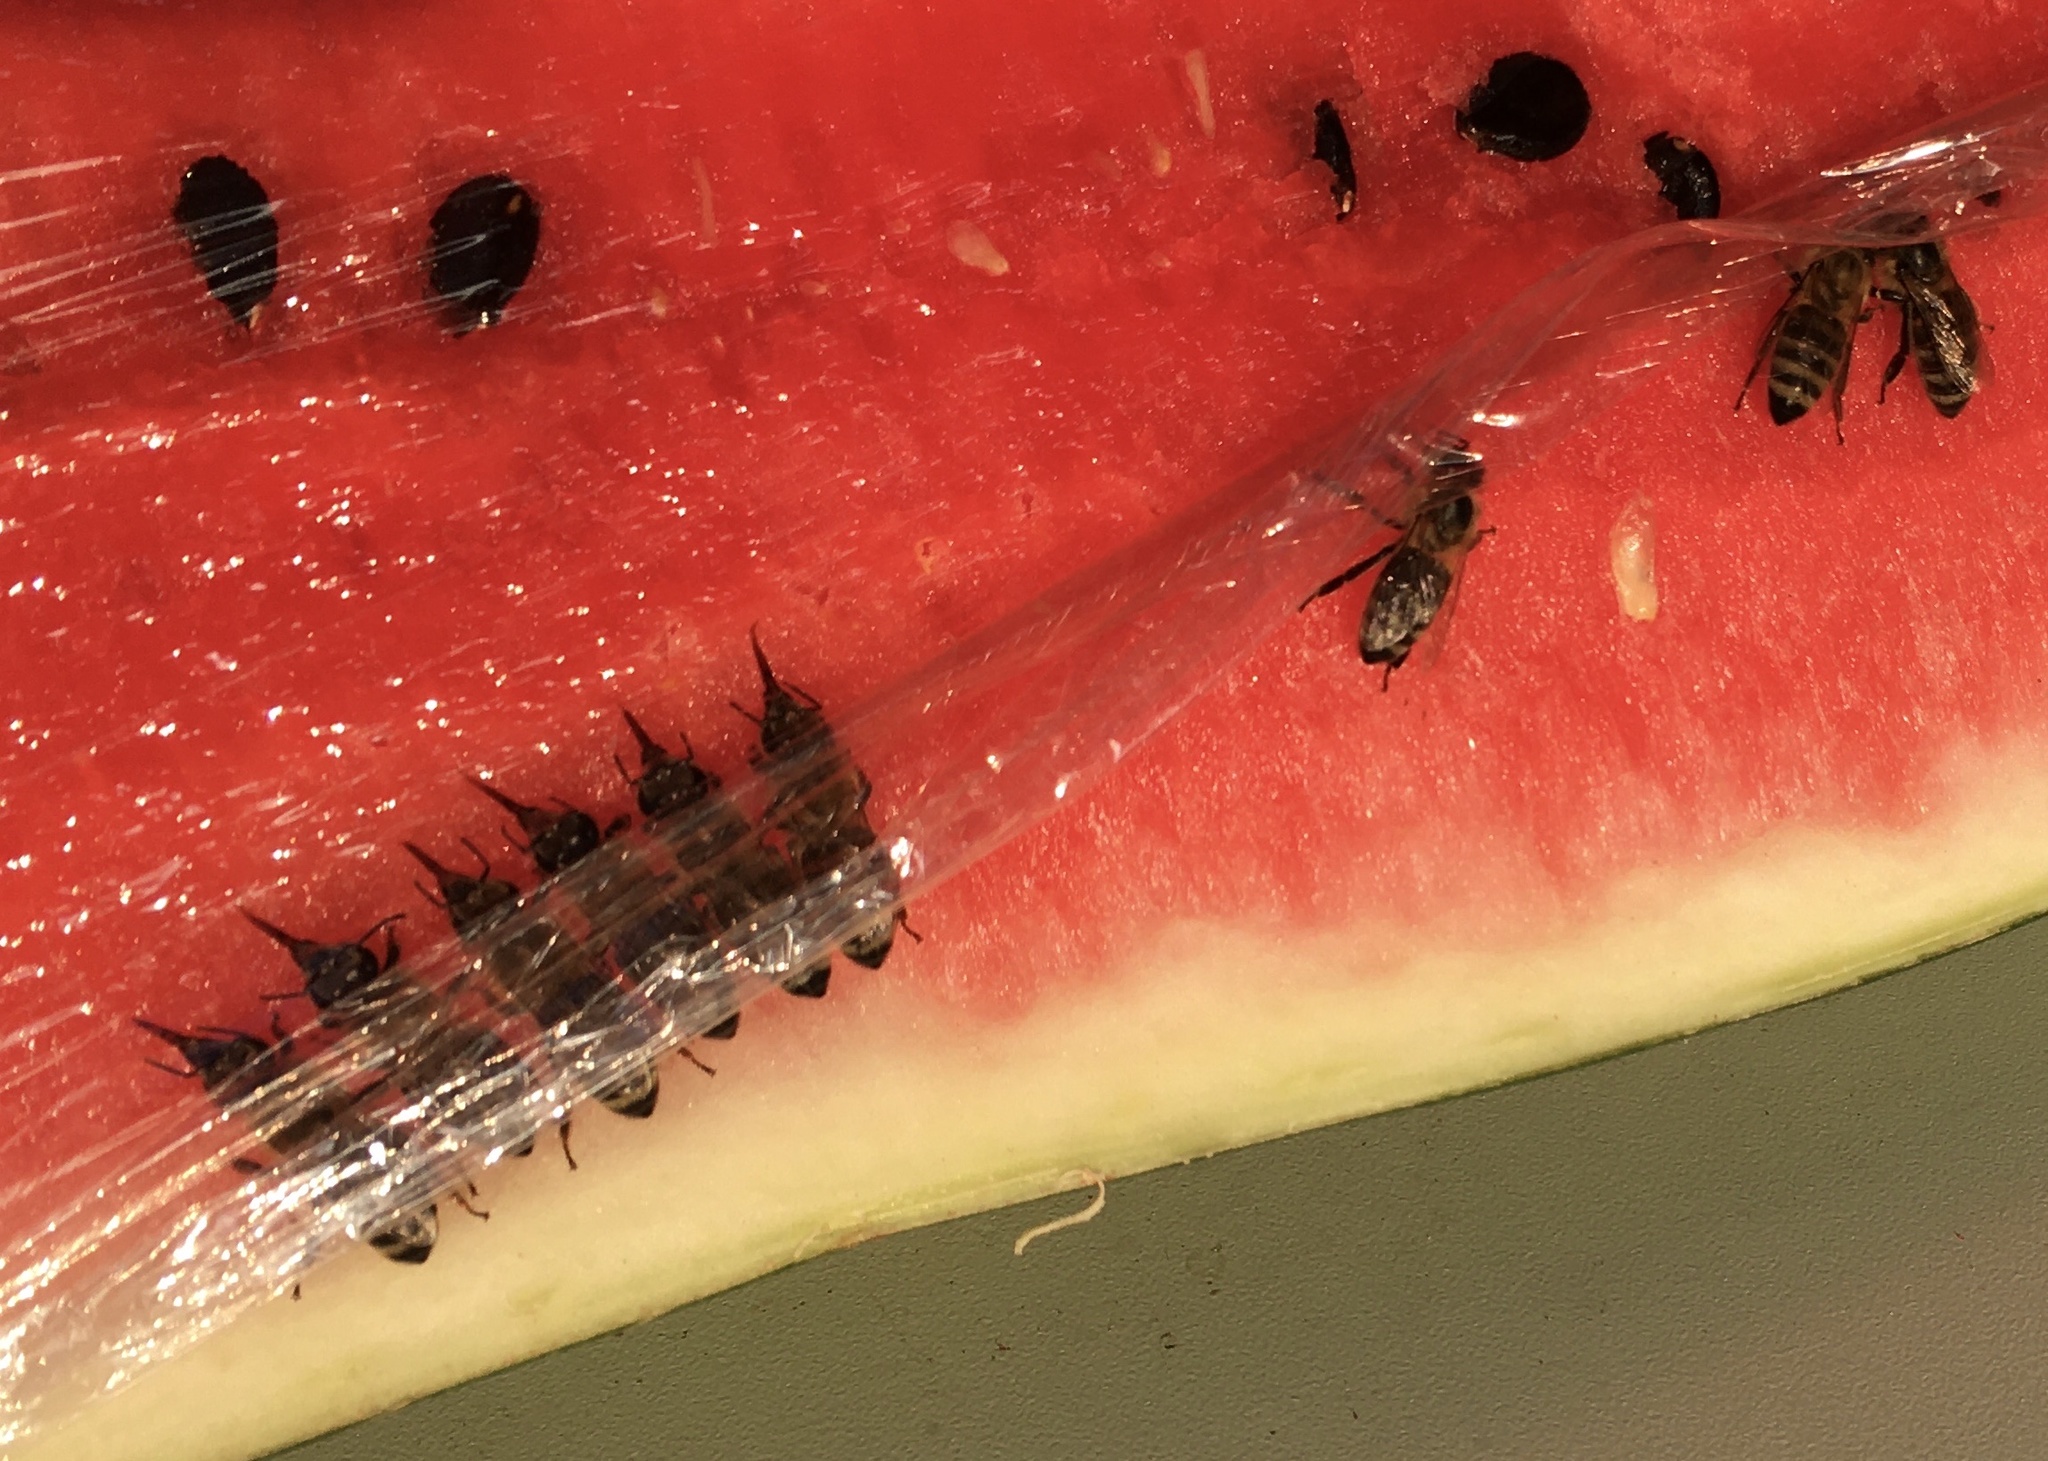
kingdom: Animalia
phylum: Arthropoda
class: Insecta
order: Hymenoptera
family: Apidae
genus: Apis
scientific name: Apis mellifera
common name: Honey bee
